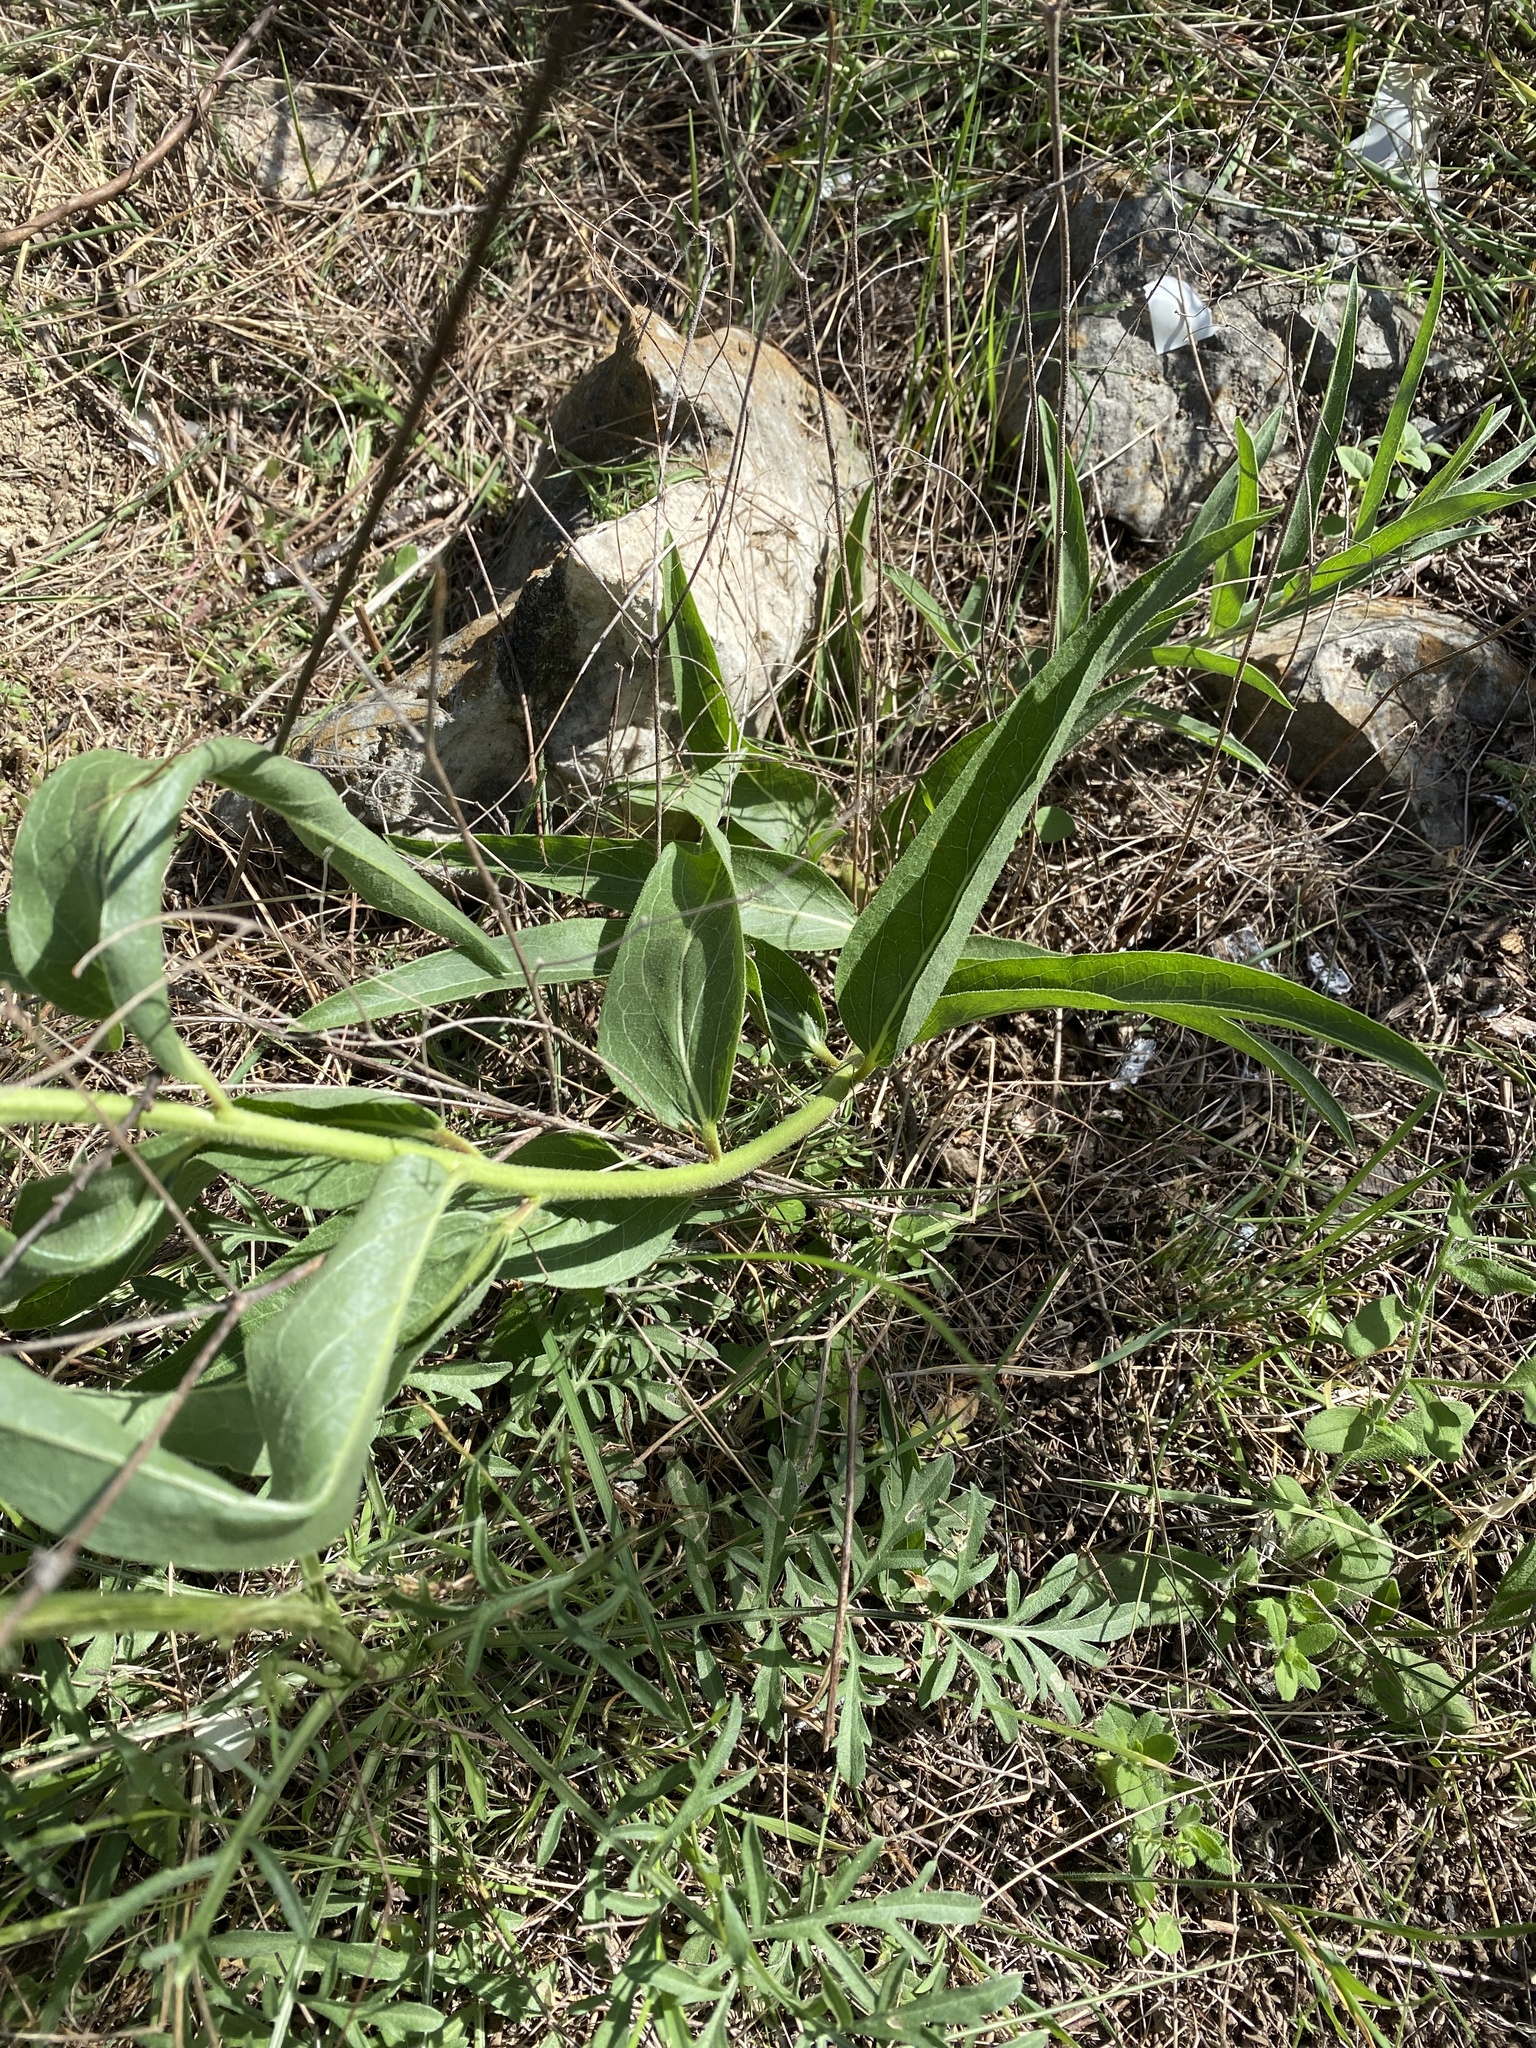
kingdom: Plantae
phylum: Tracheophyta
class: Magnoliopsida
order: Gentianales
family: Apocynaceae
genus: Asclepias
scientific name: Asclepias asperula
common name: Antelope horns
